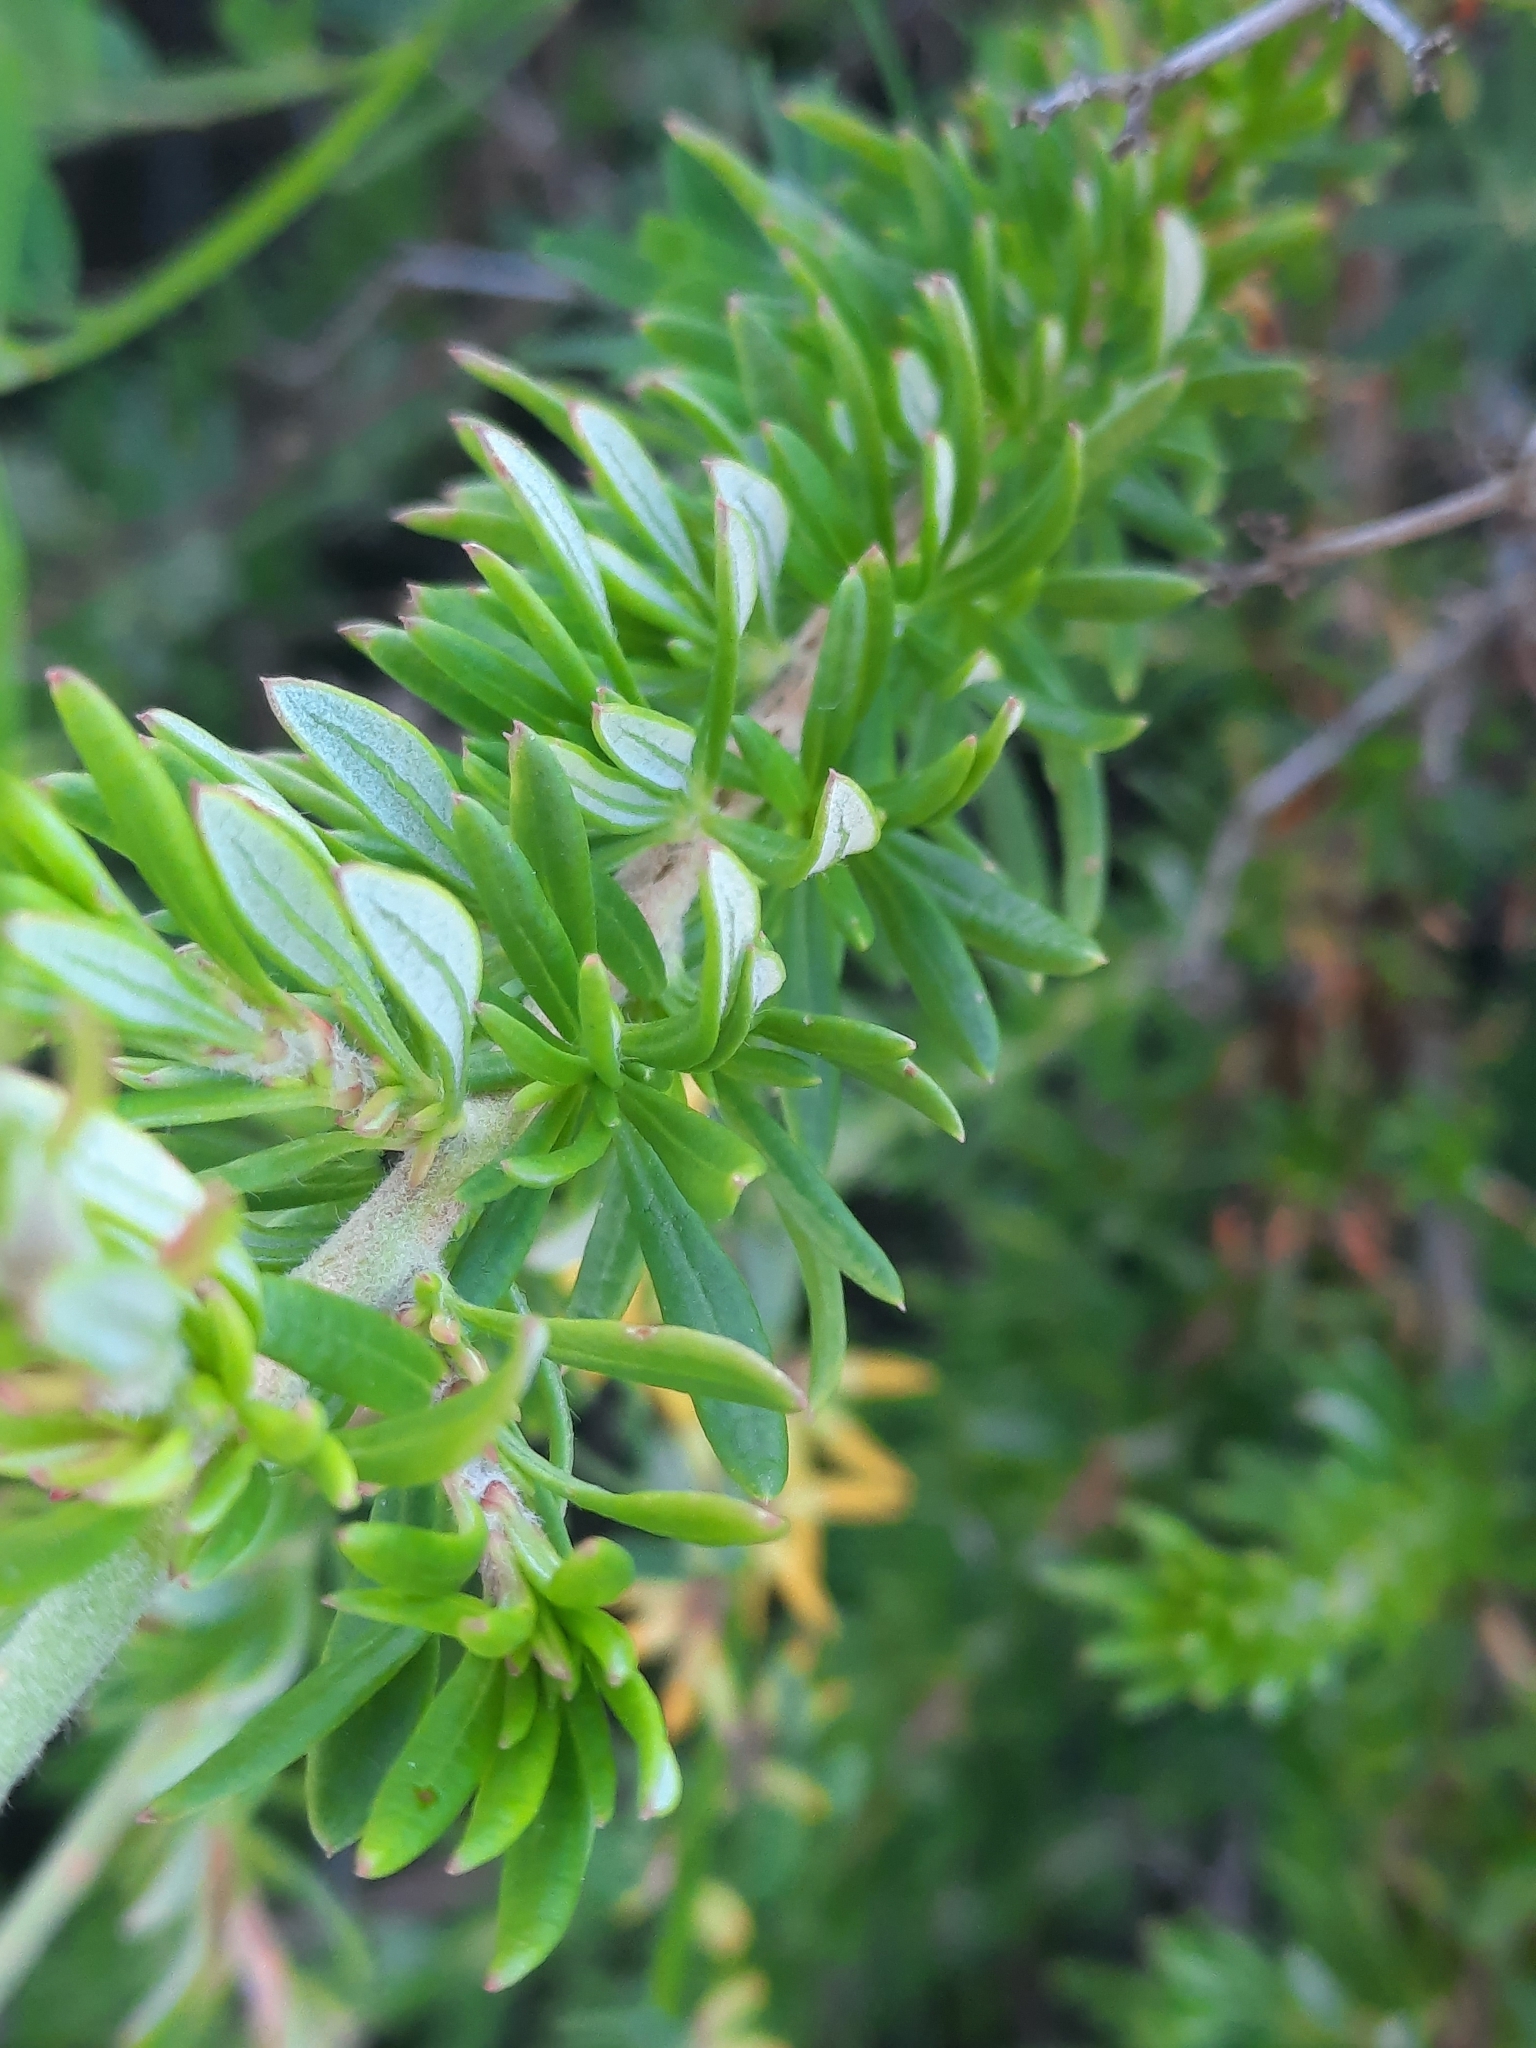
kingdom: Plantae
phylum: Tracheophyta
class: Magnoliopsida
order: Caryophyllales
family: Polygonaceae
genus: Eriogonum
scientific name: Eriogonum fasciculatum
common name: California wild buckwheat
